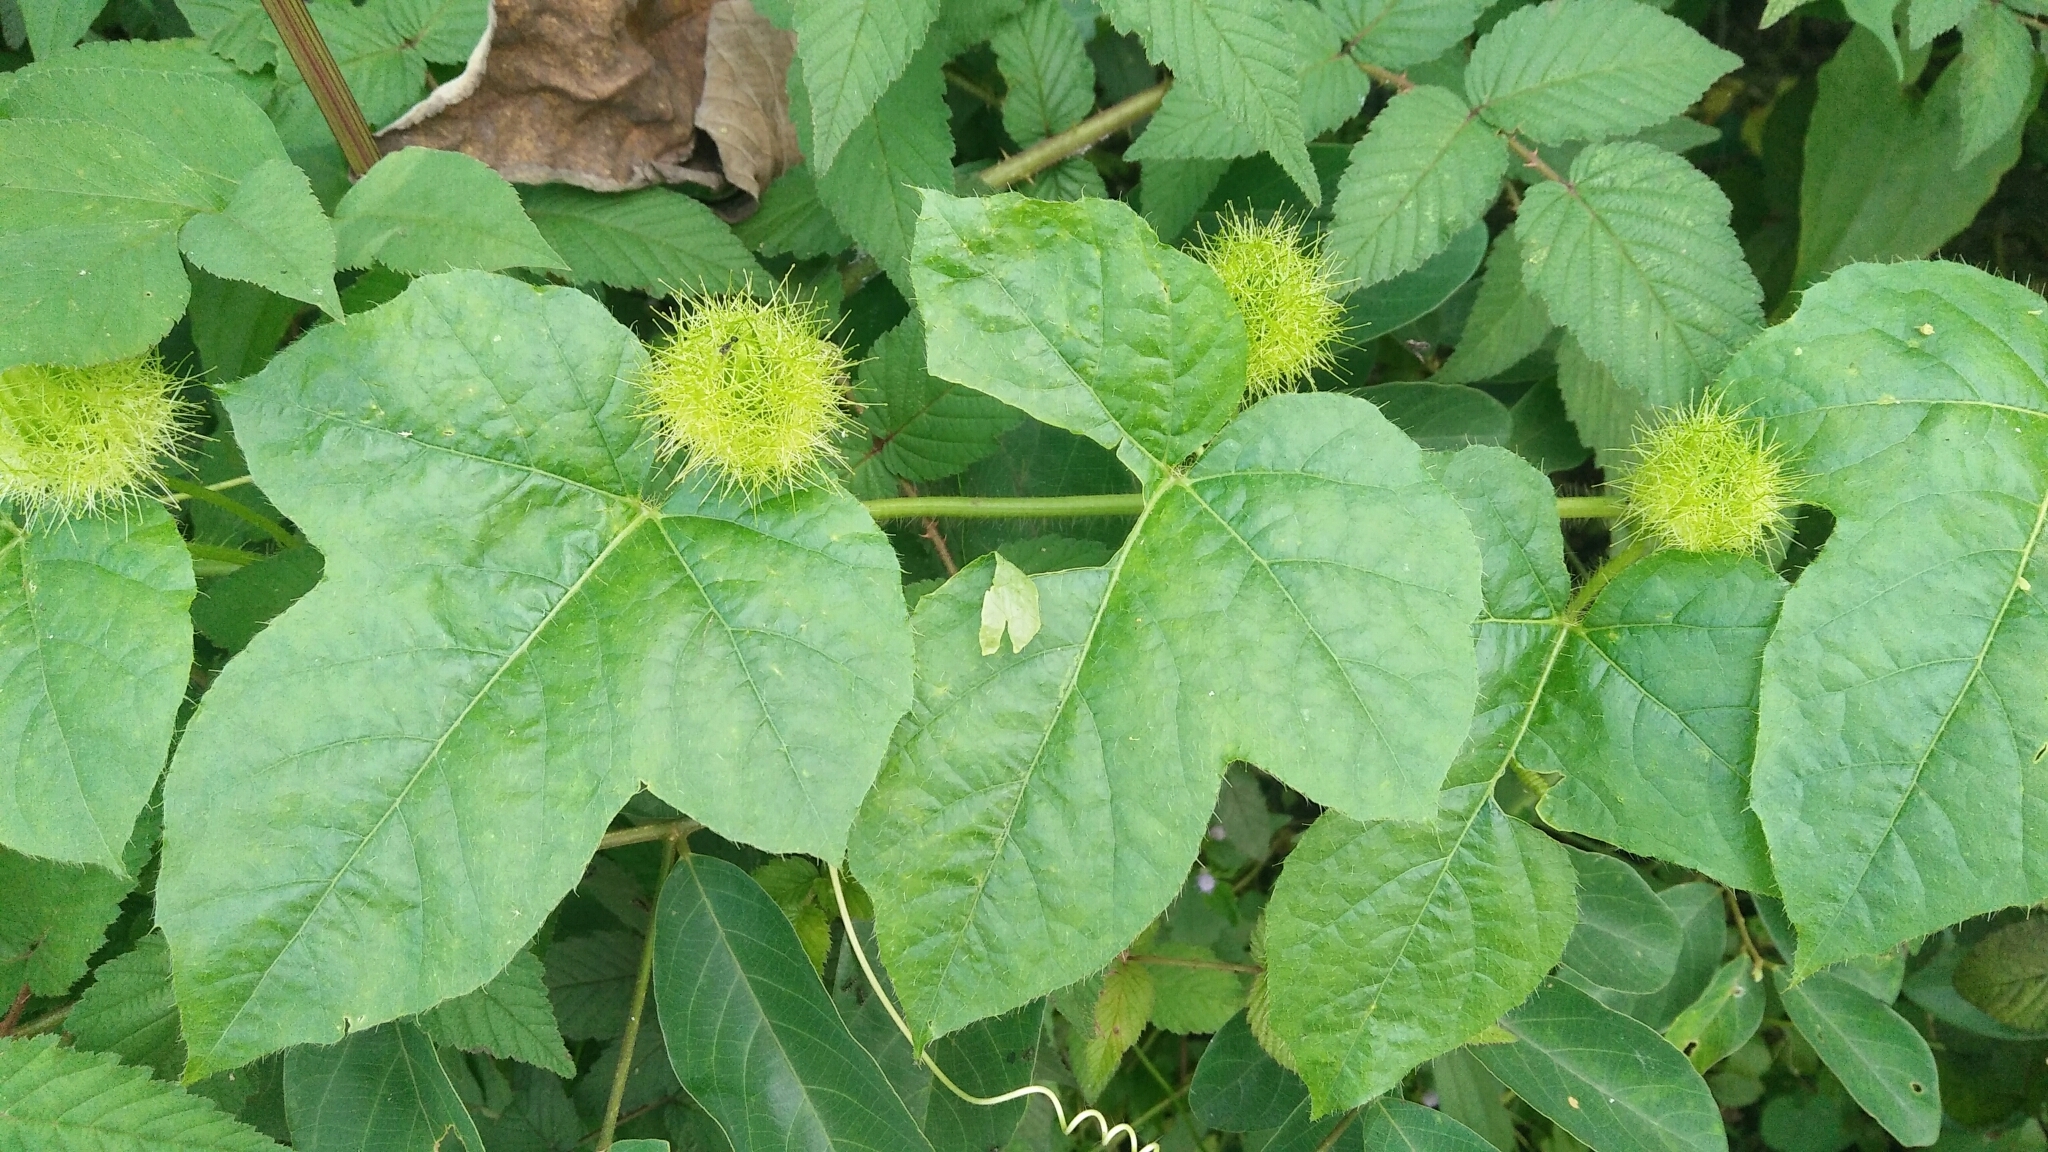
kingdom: Plantae
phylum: Tracheophyta
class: Magnoliopsida
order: Malpighiales
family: Passifloraceae
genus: Passiflora
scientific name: Passiflora vesicaria
